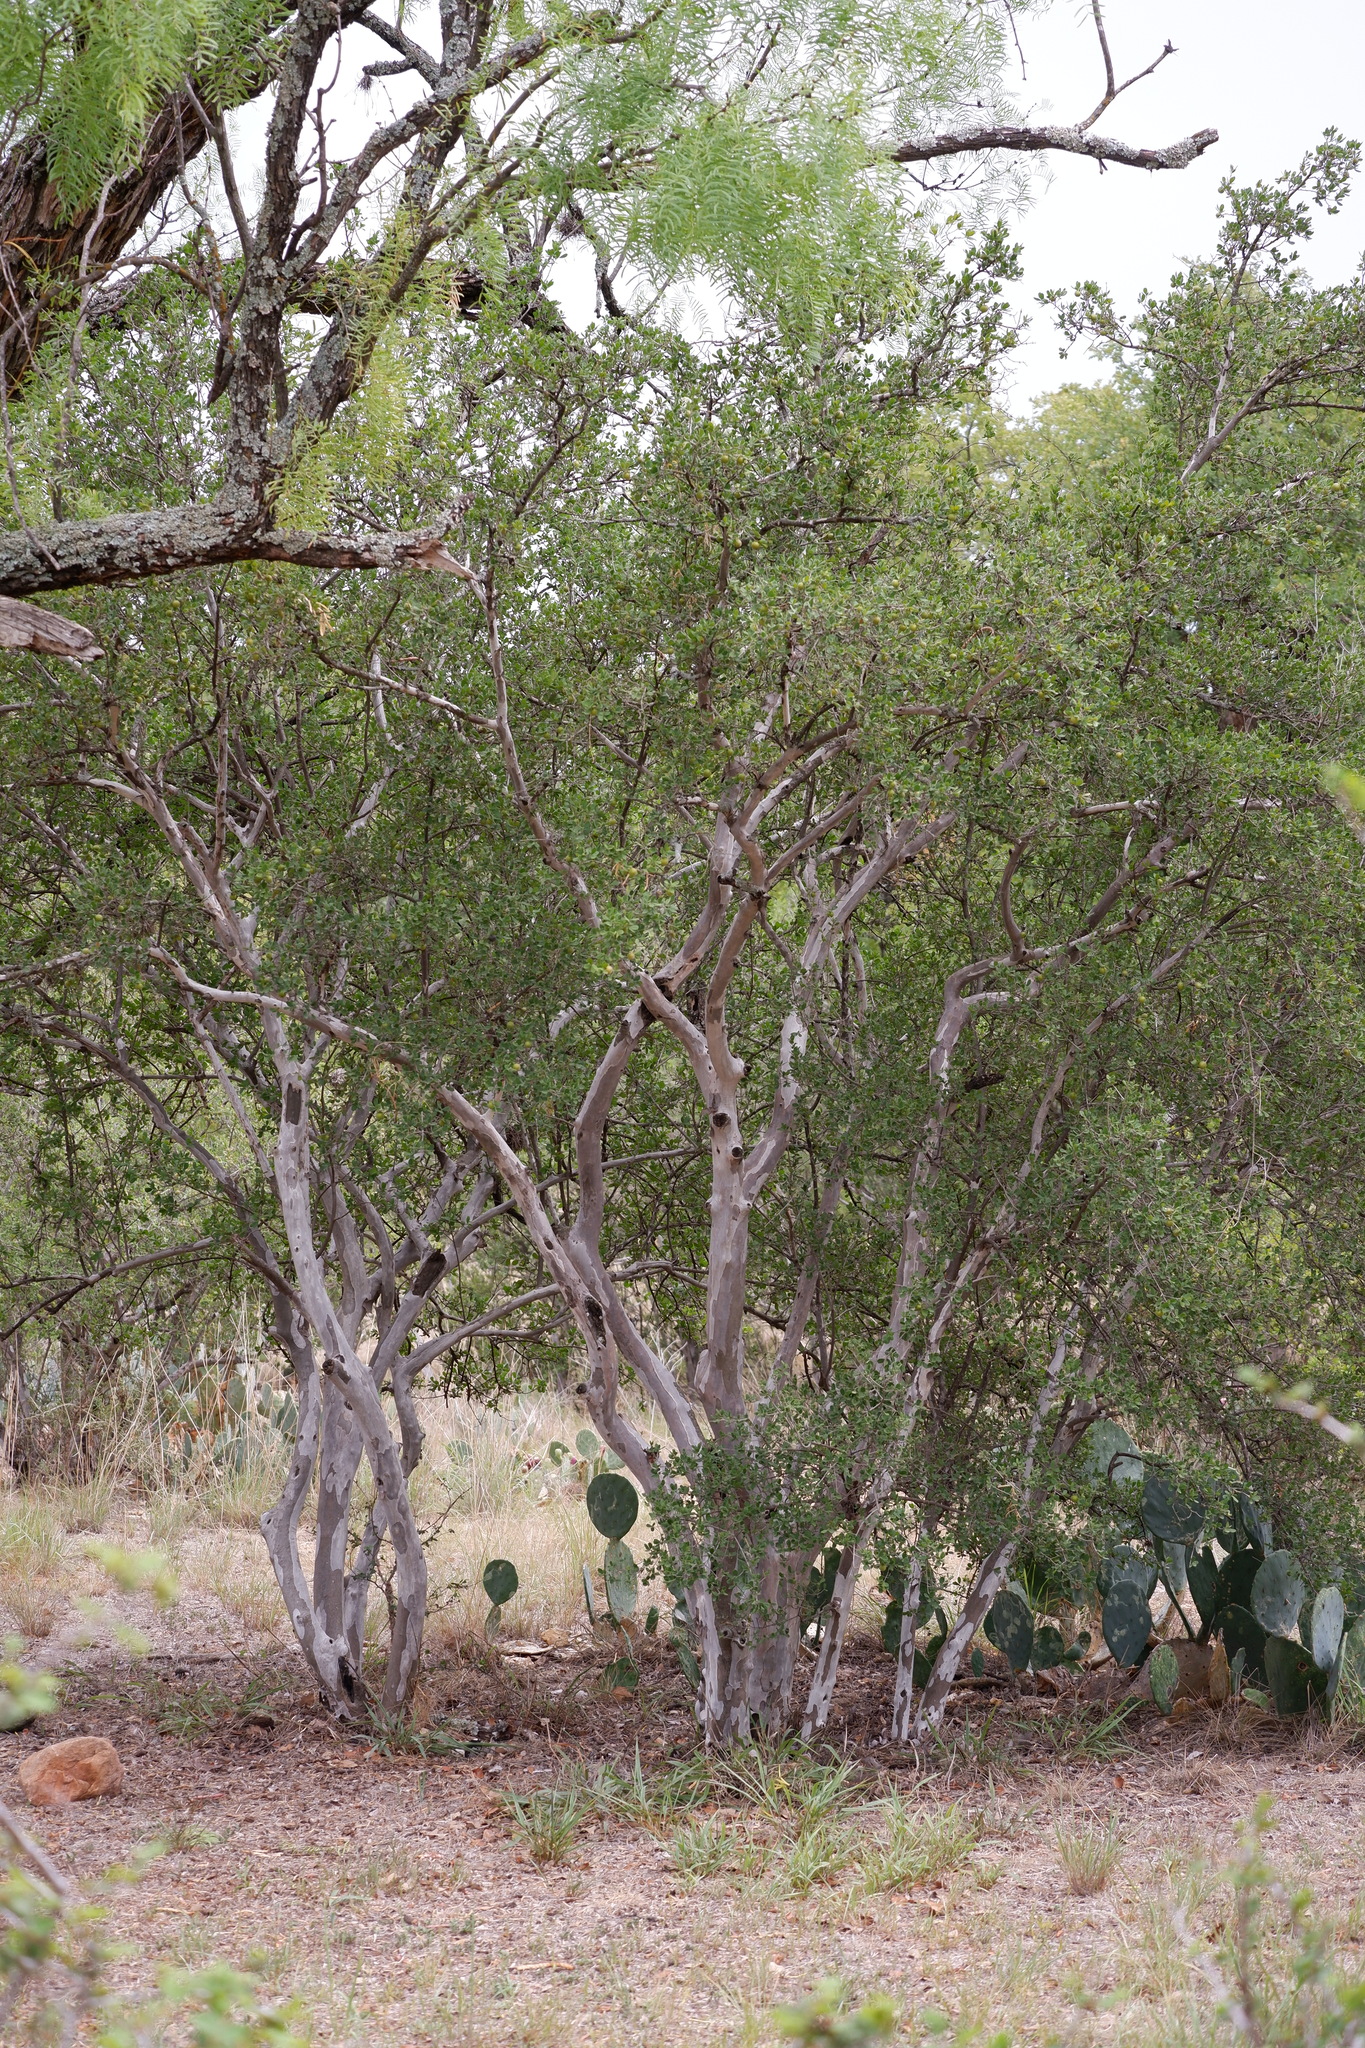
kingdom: Plantae
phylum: Tracheophyta
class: Magnoliopsida
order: Ericales
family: Ebenaceae
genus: Diospyros
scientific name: Diospyros texana
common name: Texas persimmon
